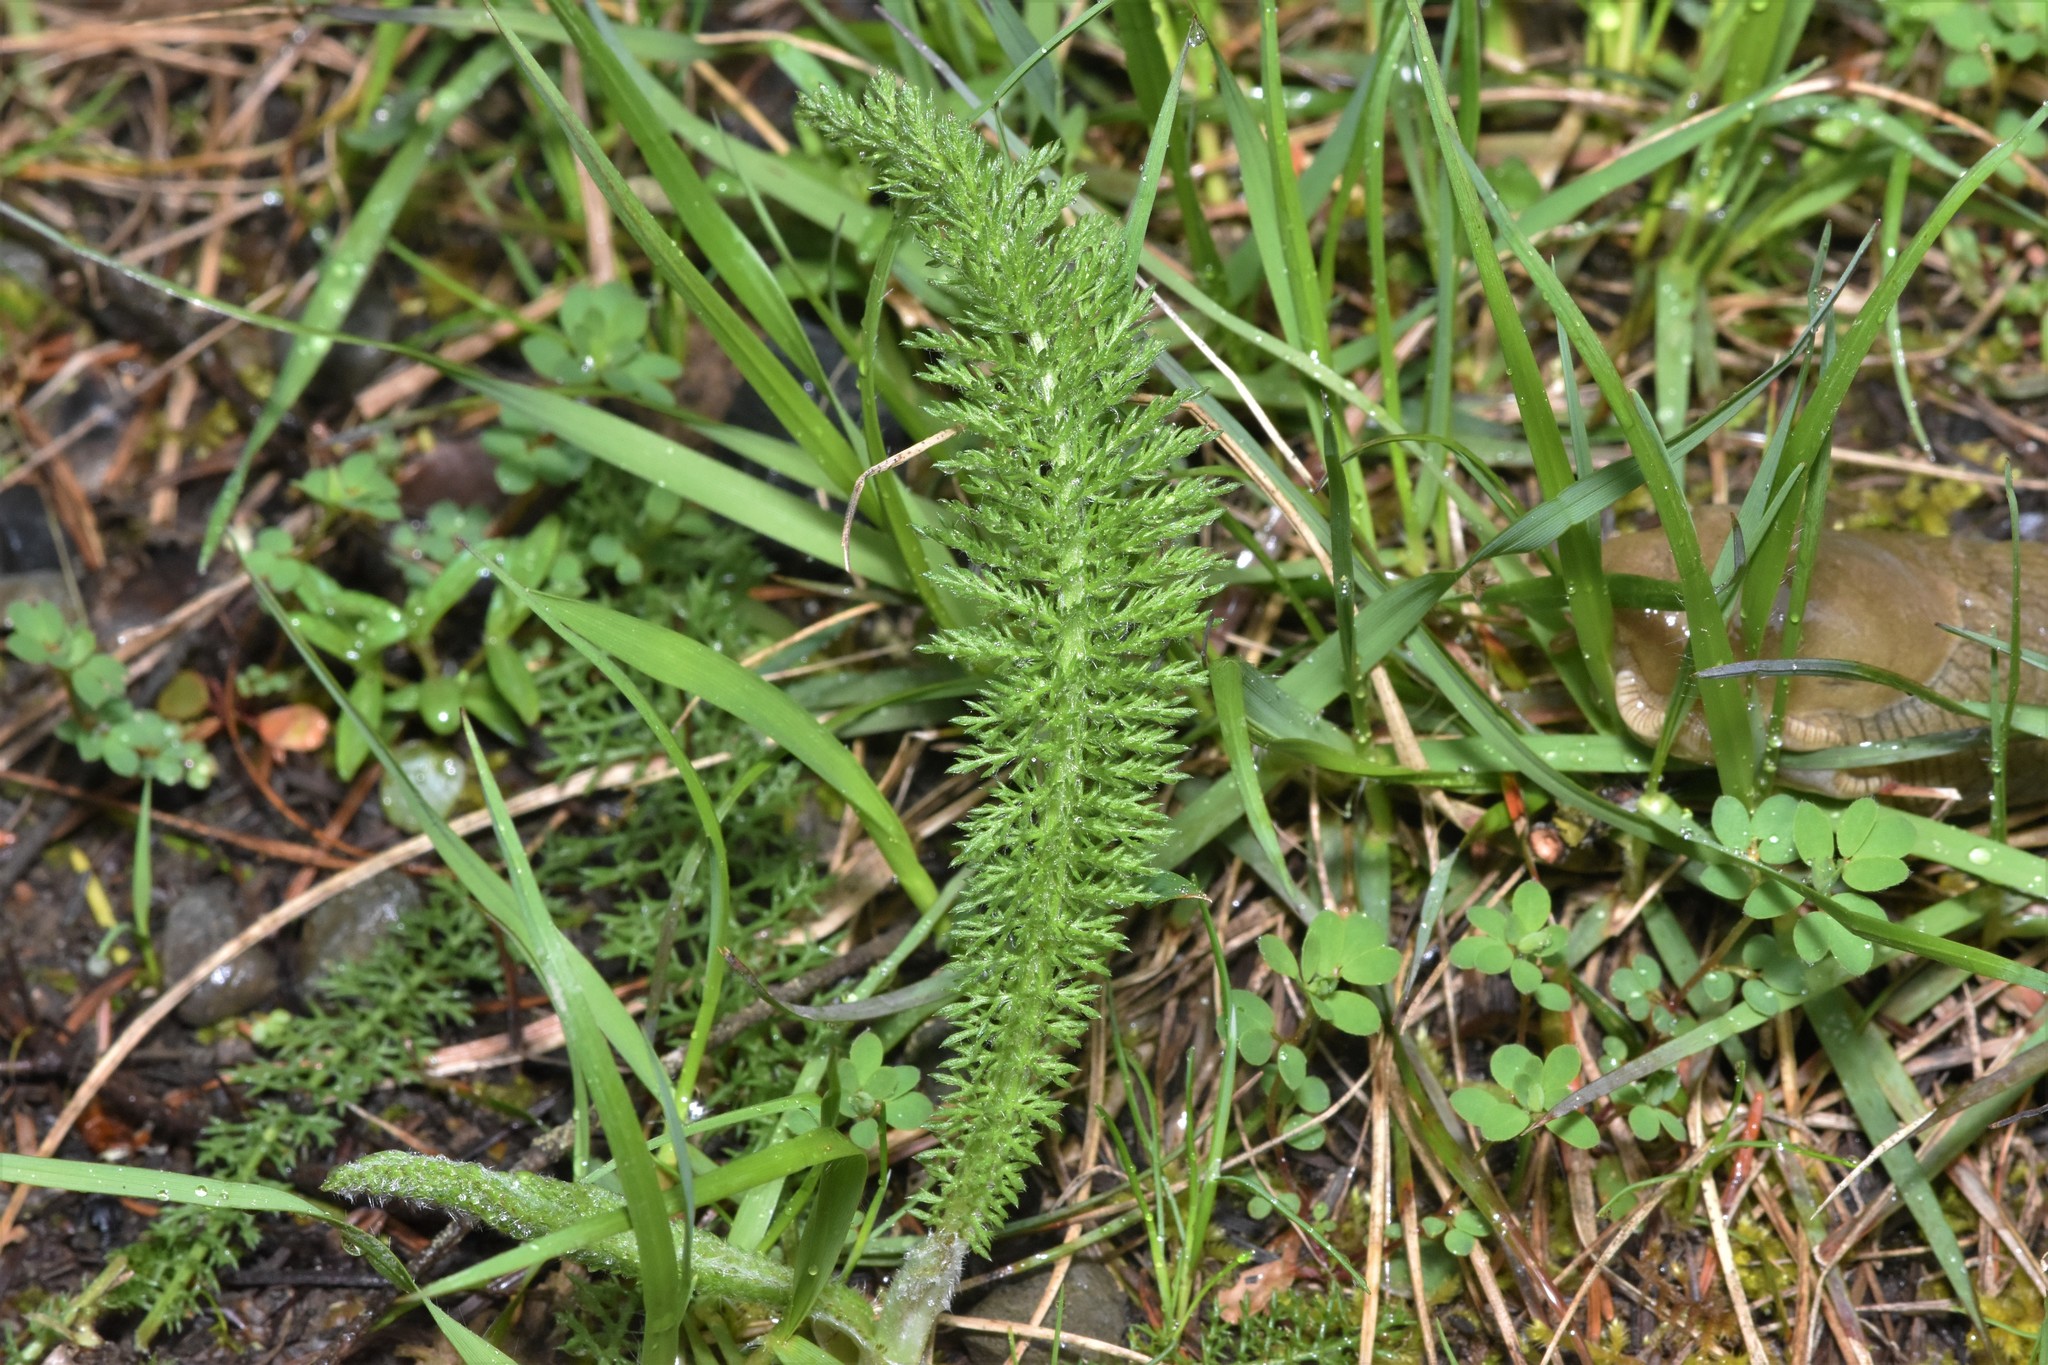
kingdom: Plantae
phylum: Tracheophyta
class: Magnoliopsida
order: Asterales
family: Asteraceae
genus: Achillea
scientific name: Achillea millefolium
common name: Yarrow
